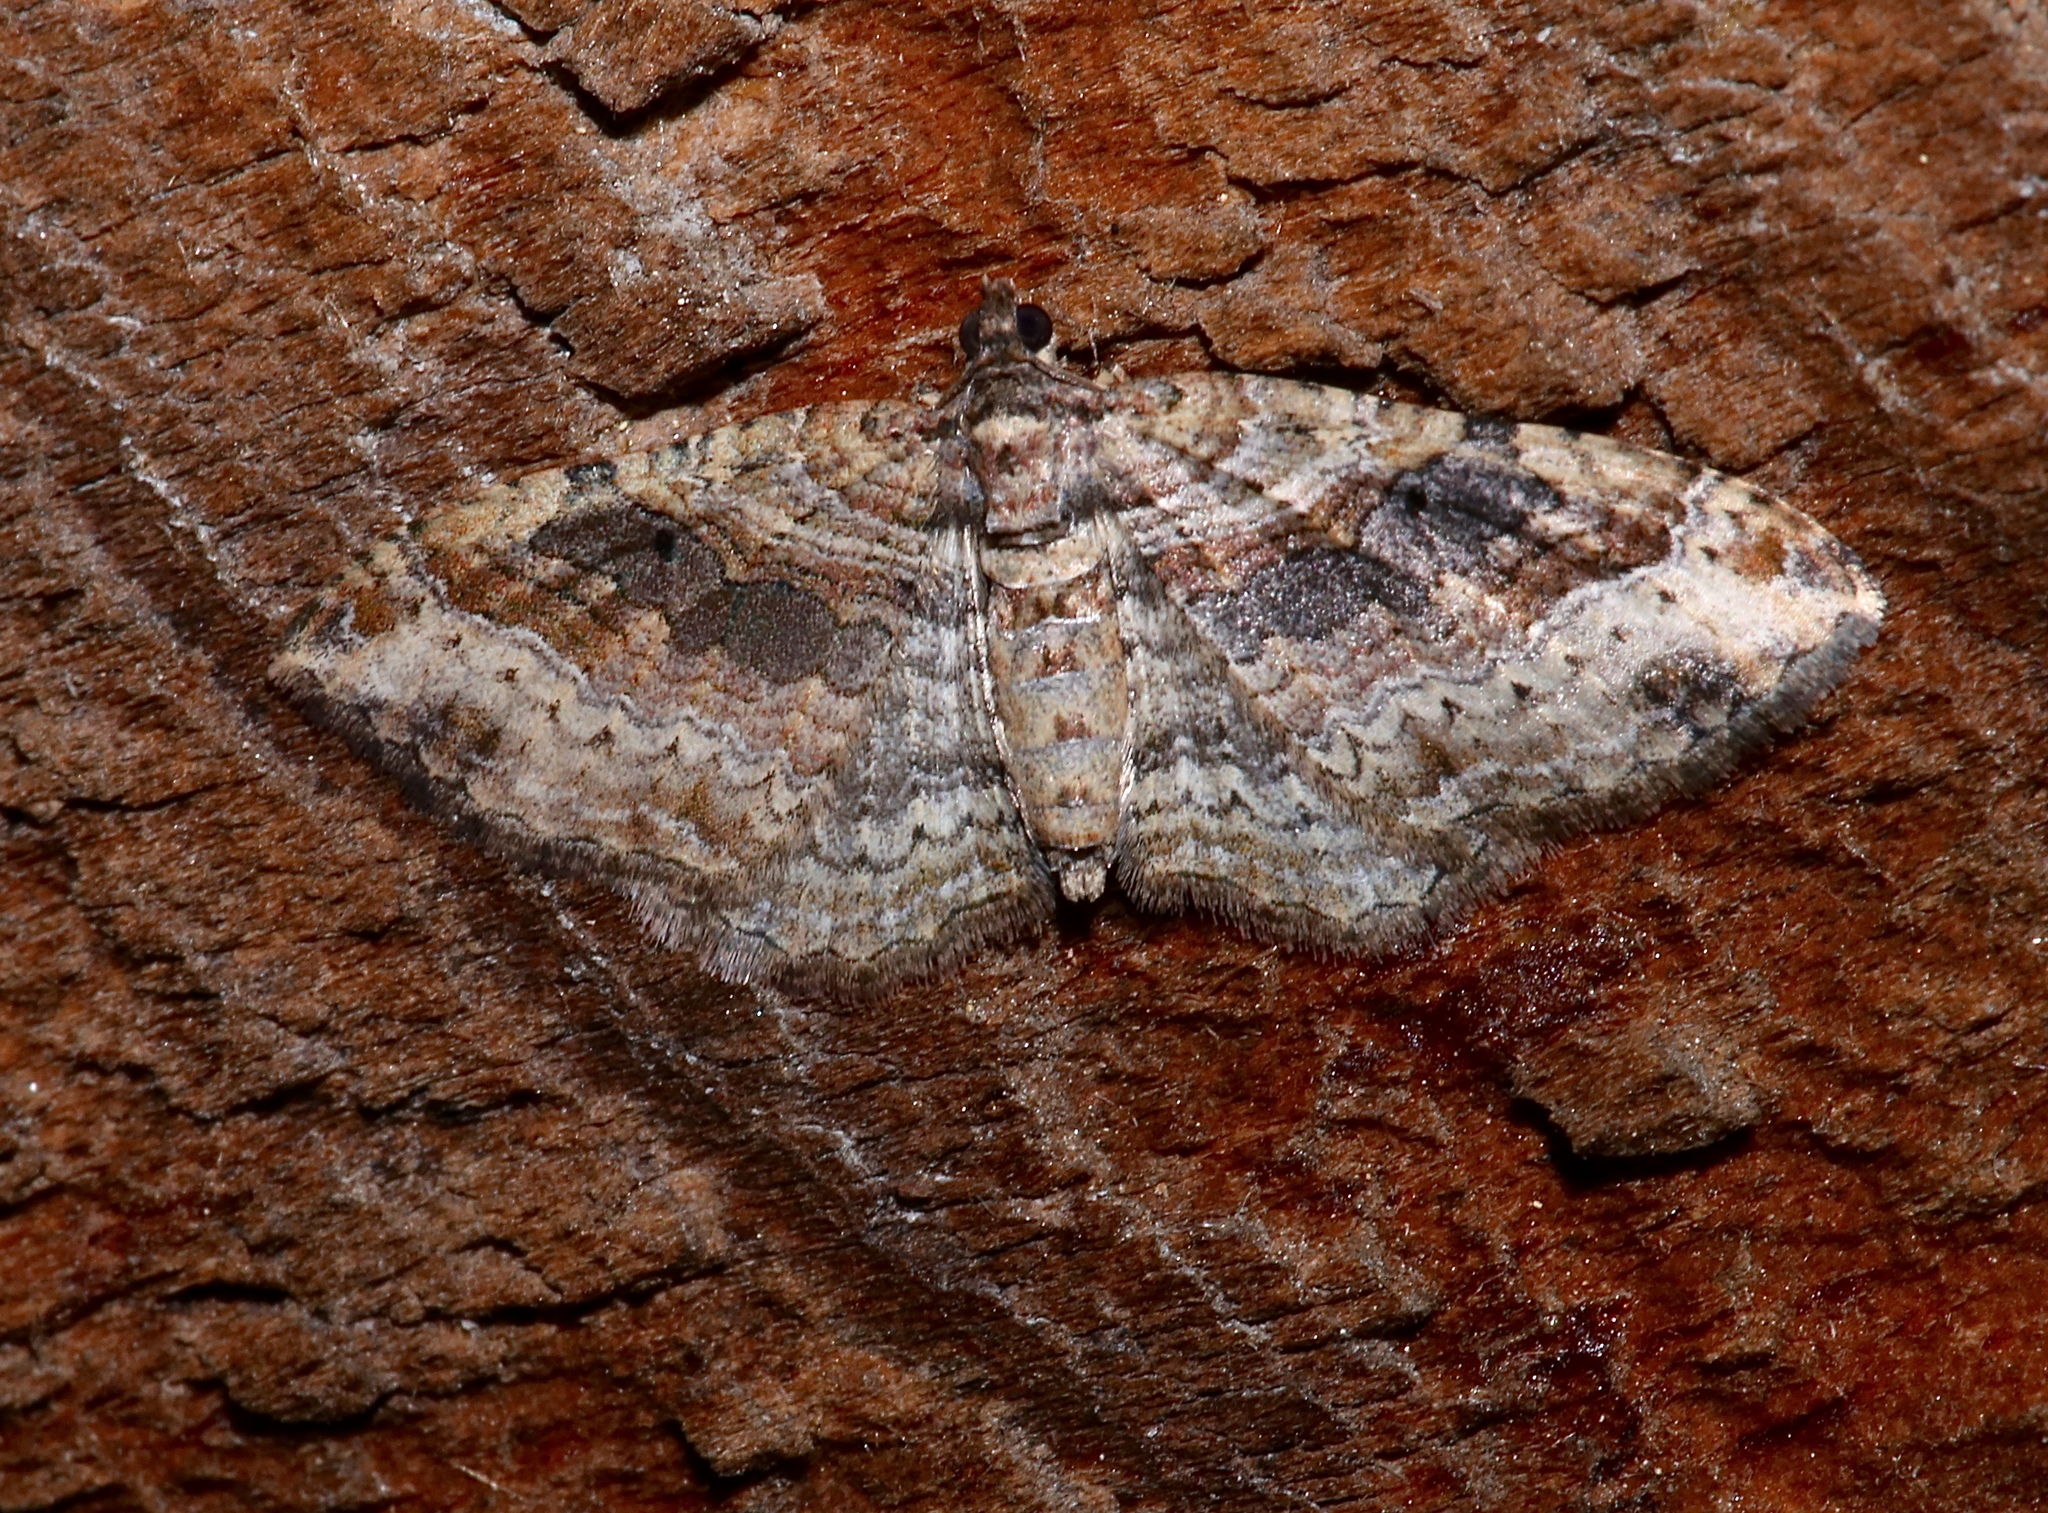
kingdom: Animalia
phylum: Arthropoda
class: Insecta
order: Lepidoptera
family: Geometridae
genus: Costaconvexa
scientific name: Costaconvexa centrostrigaria
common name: Bent-line carpet
